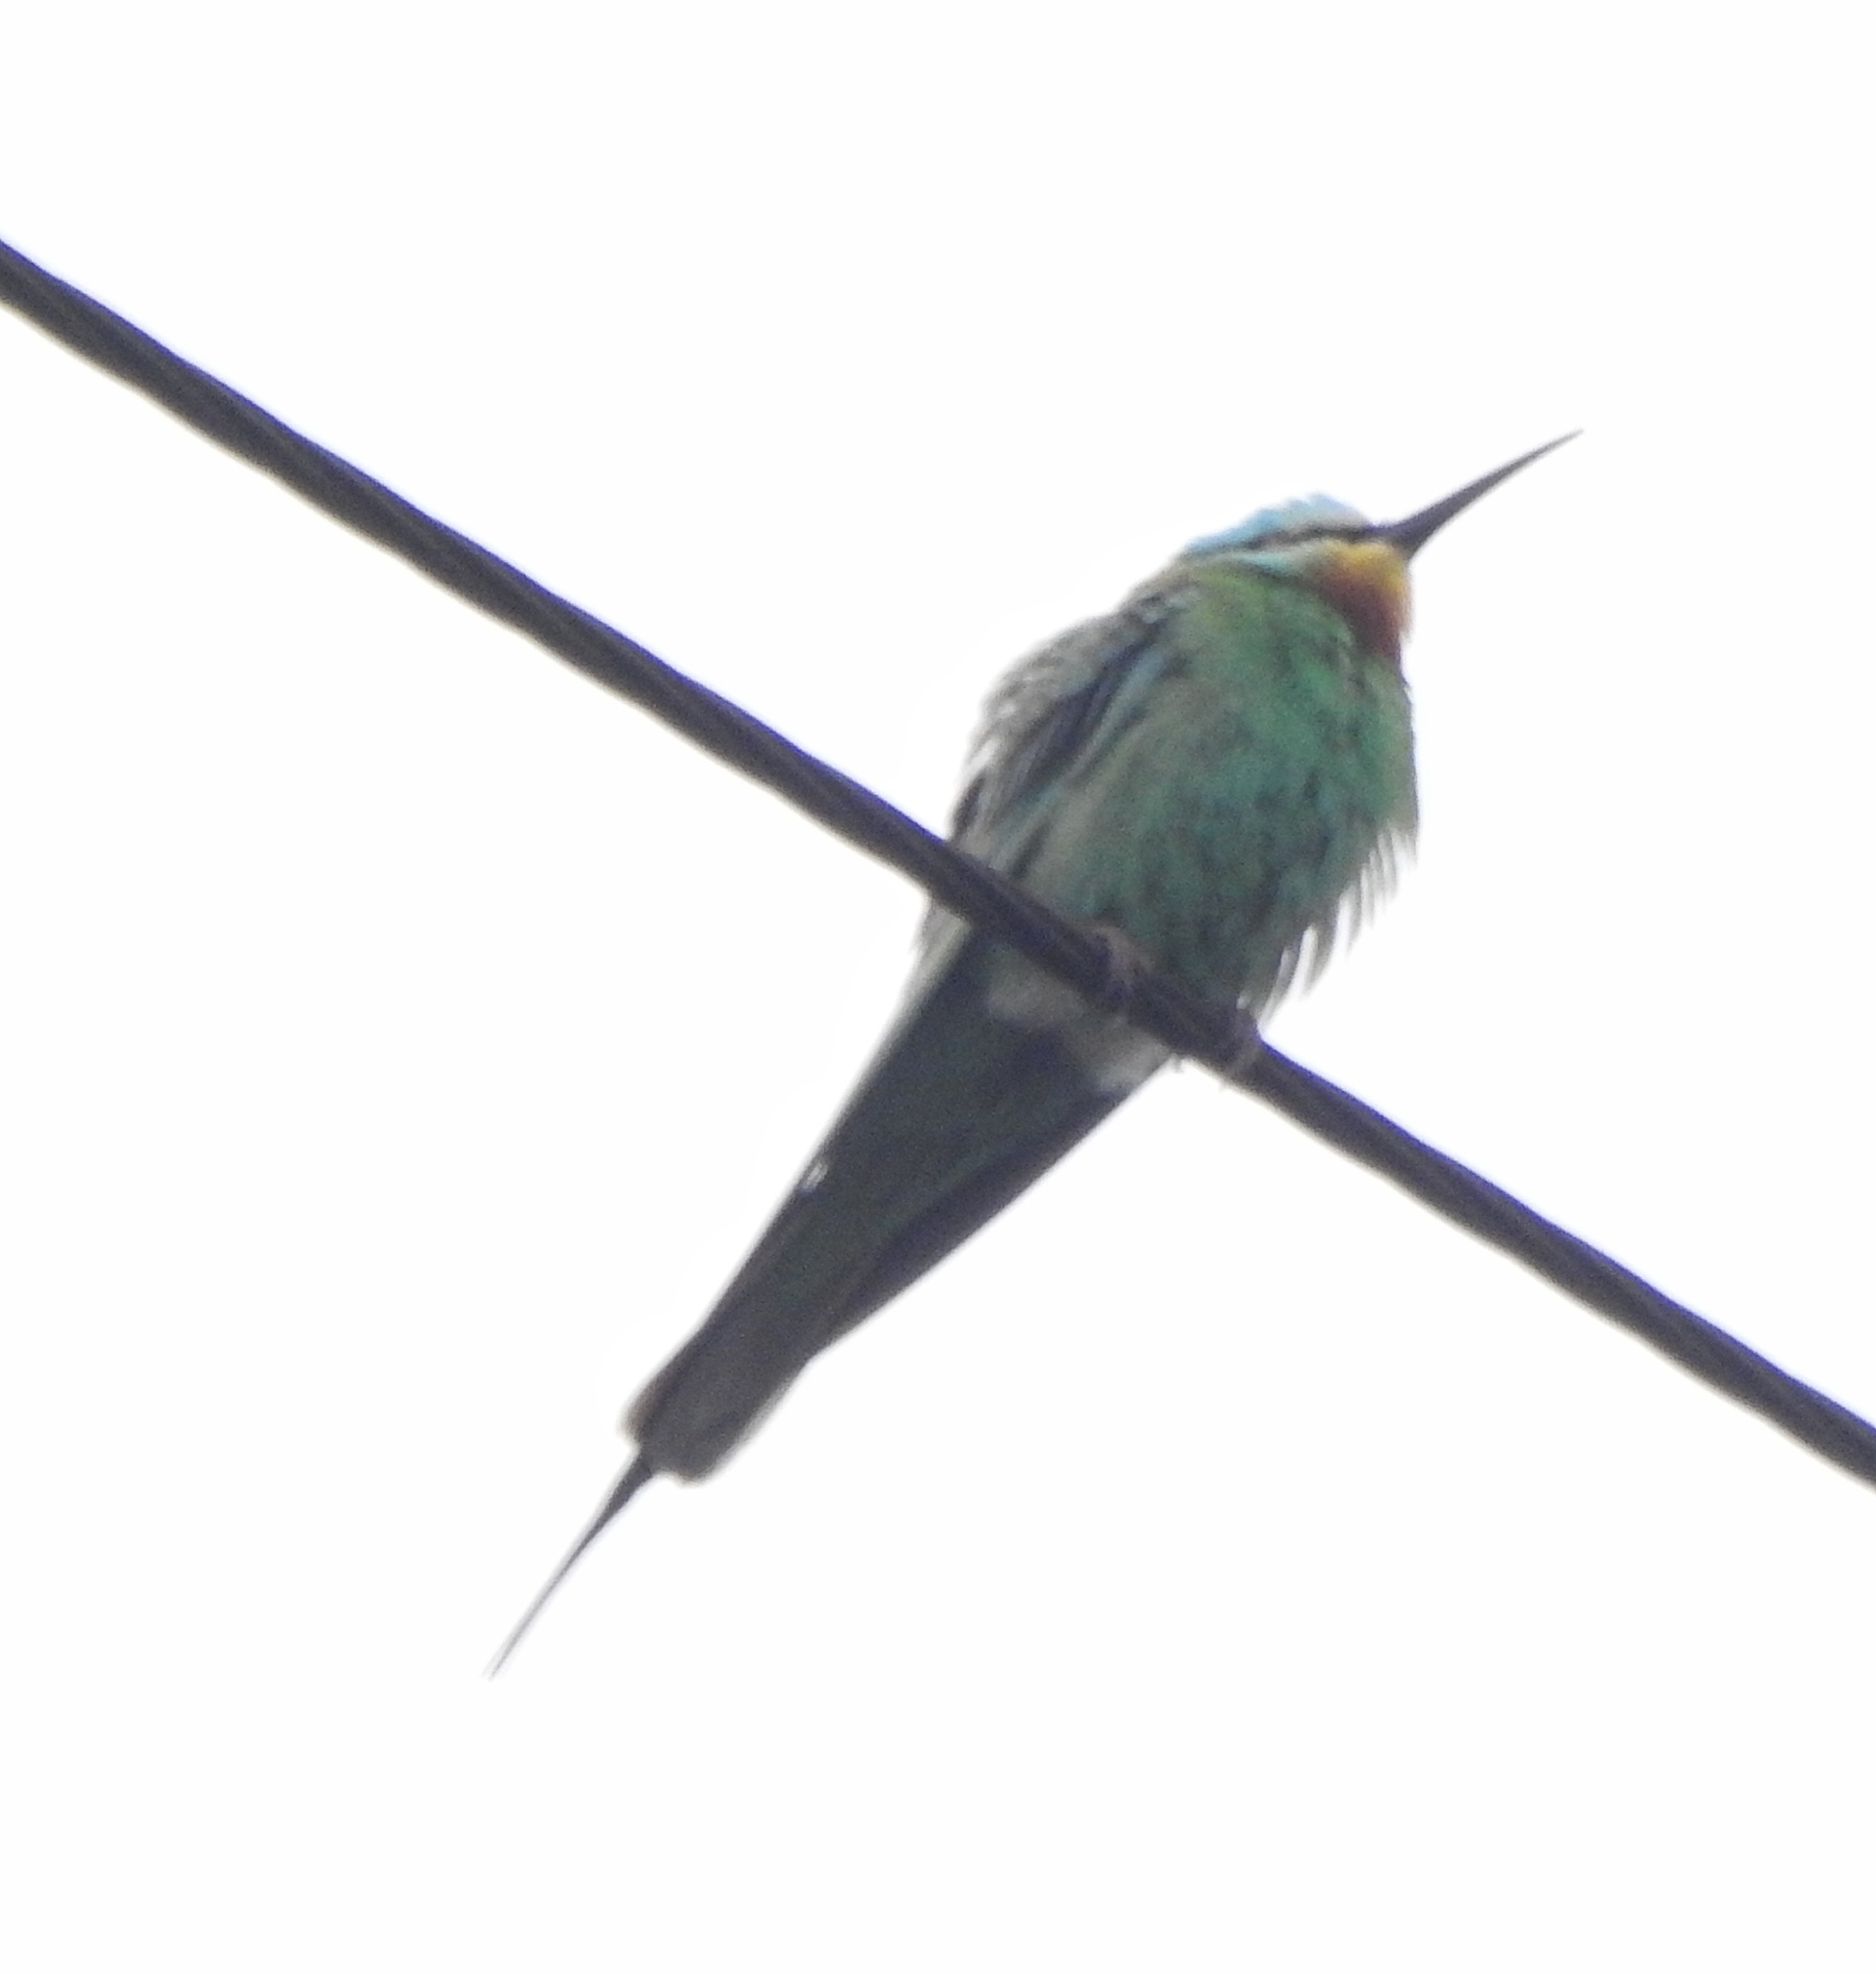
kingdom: Animalia
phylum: Chordata
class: Aves
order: Coraciiformes
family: Meropidae
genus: Merops
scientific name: Merops persicus
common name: Blue-cheeked bee-eater
